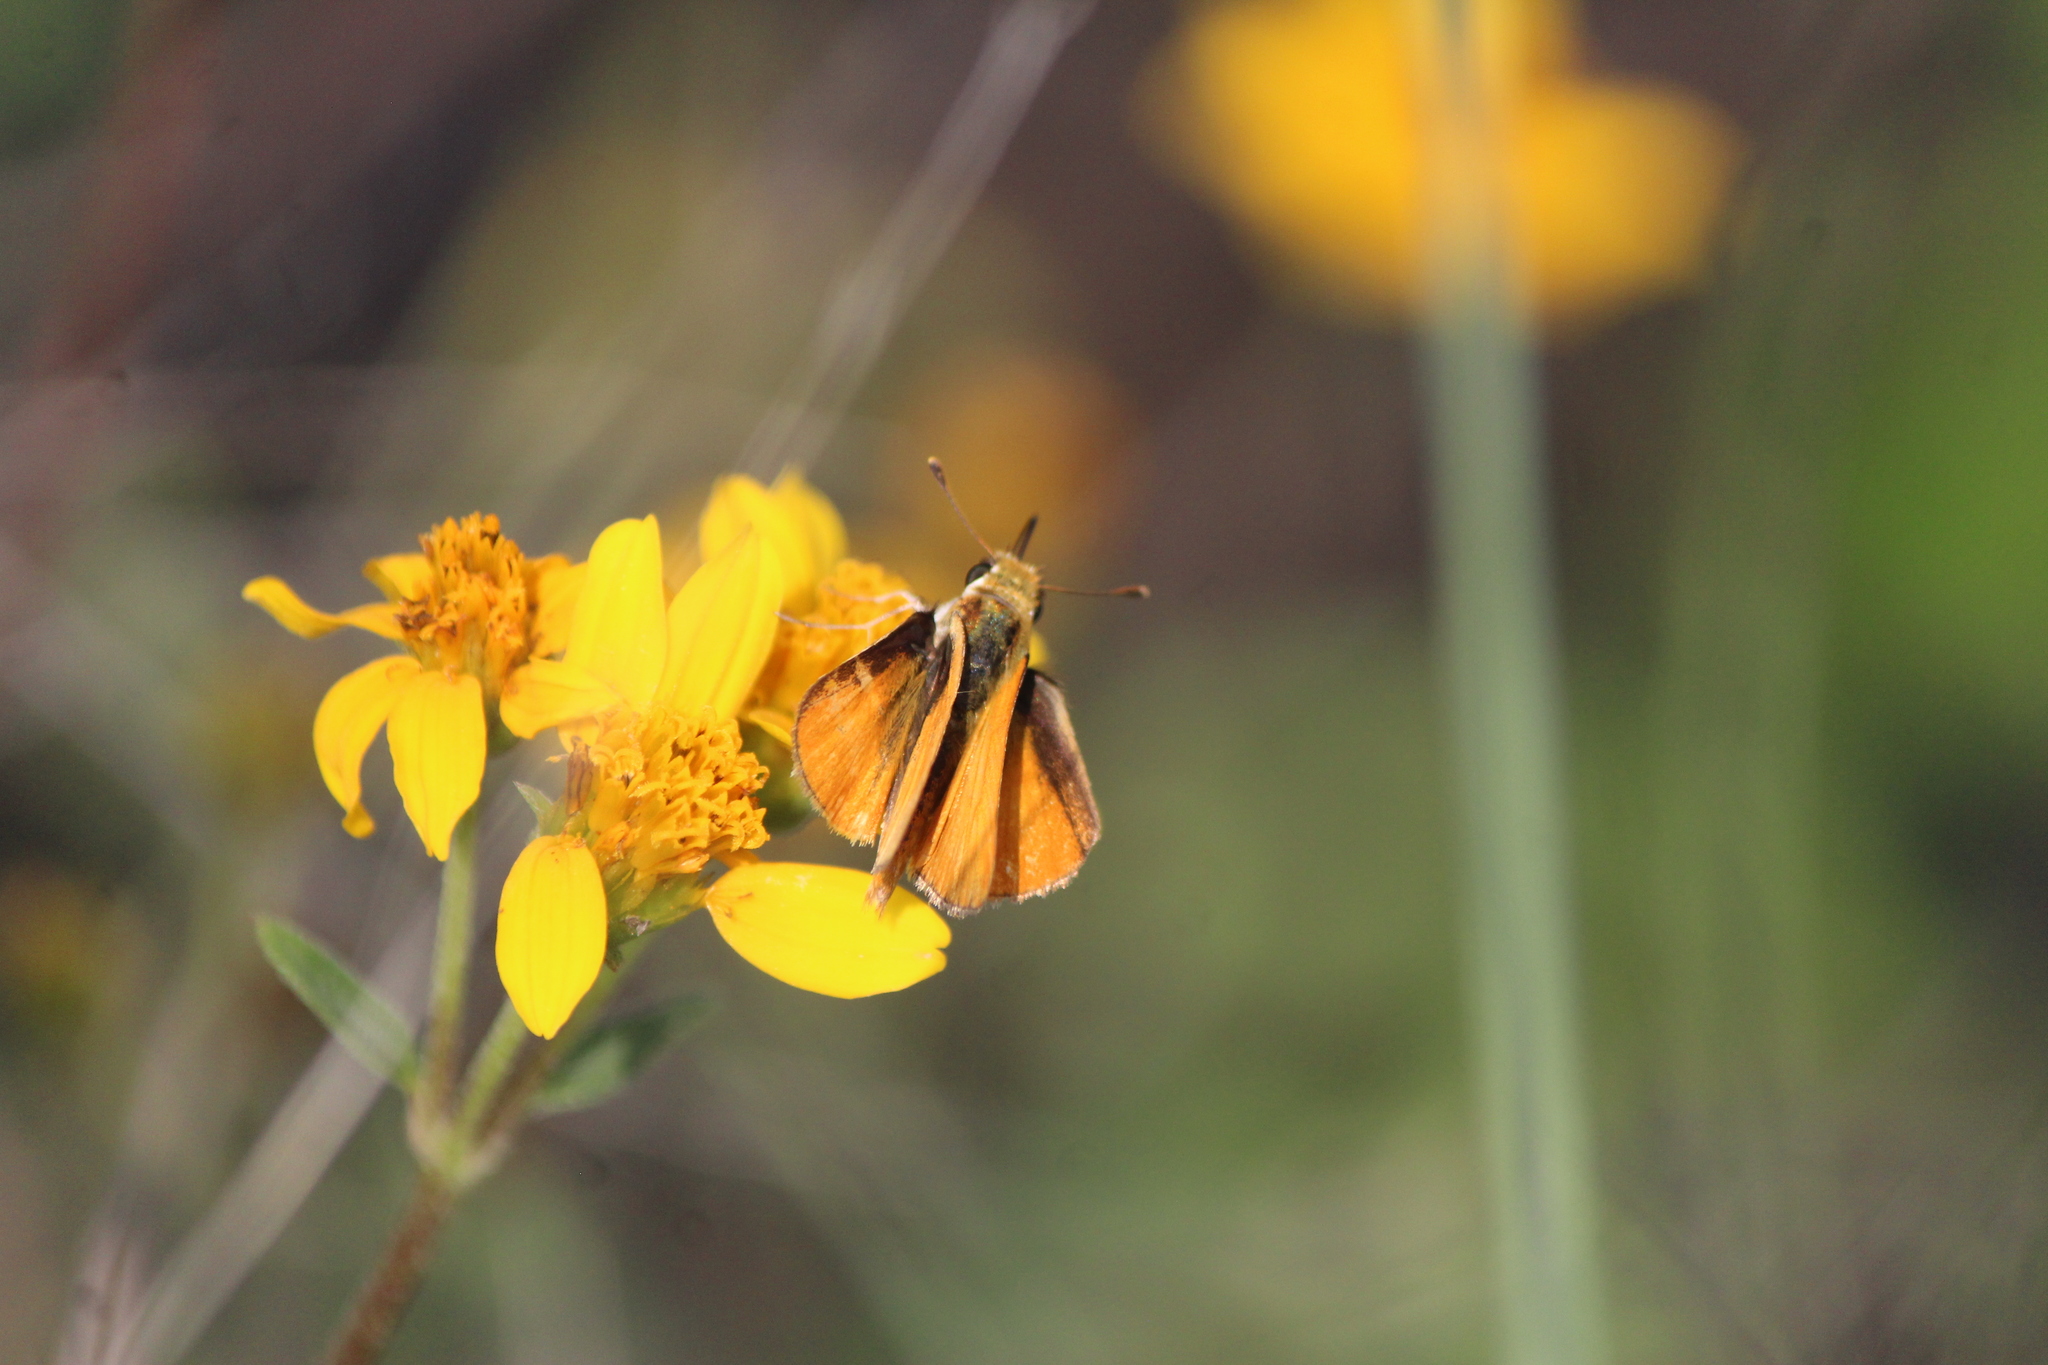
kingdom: Animalia
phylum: Arthropoda
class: Insecta
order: Lepidoptera
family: Hesperiidae
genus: Copaeodes
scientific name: Copaeodes aurantiaca
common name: Orange skipperling
